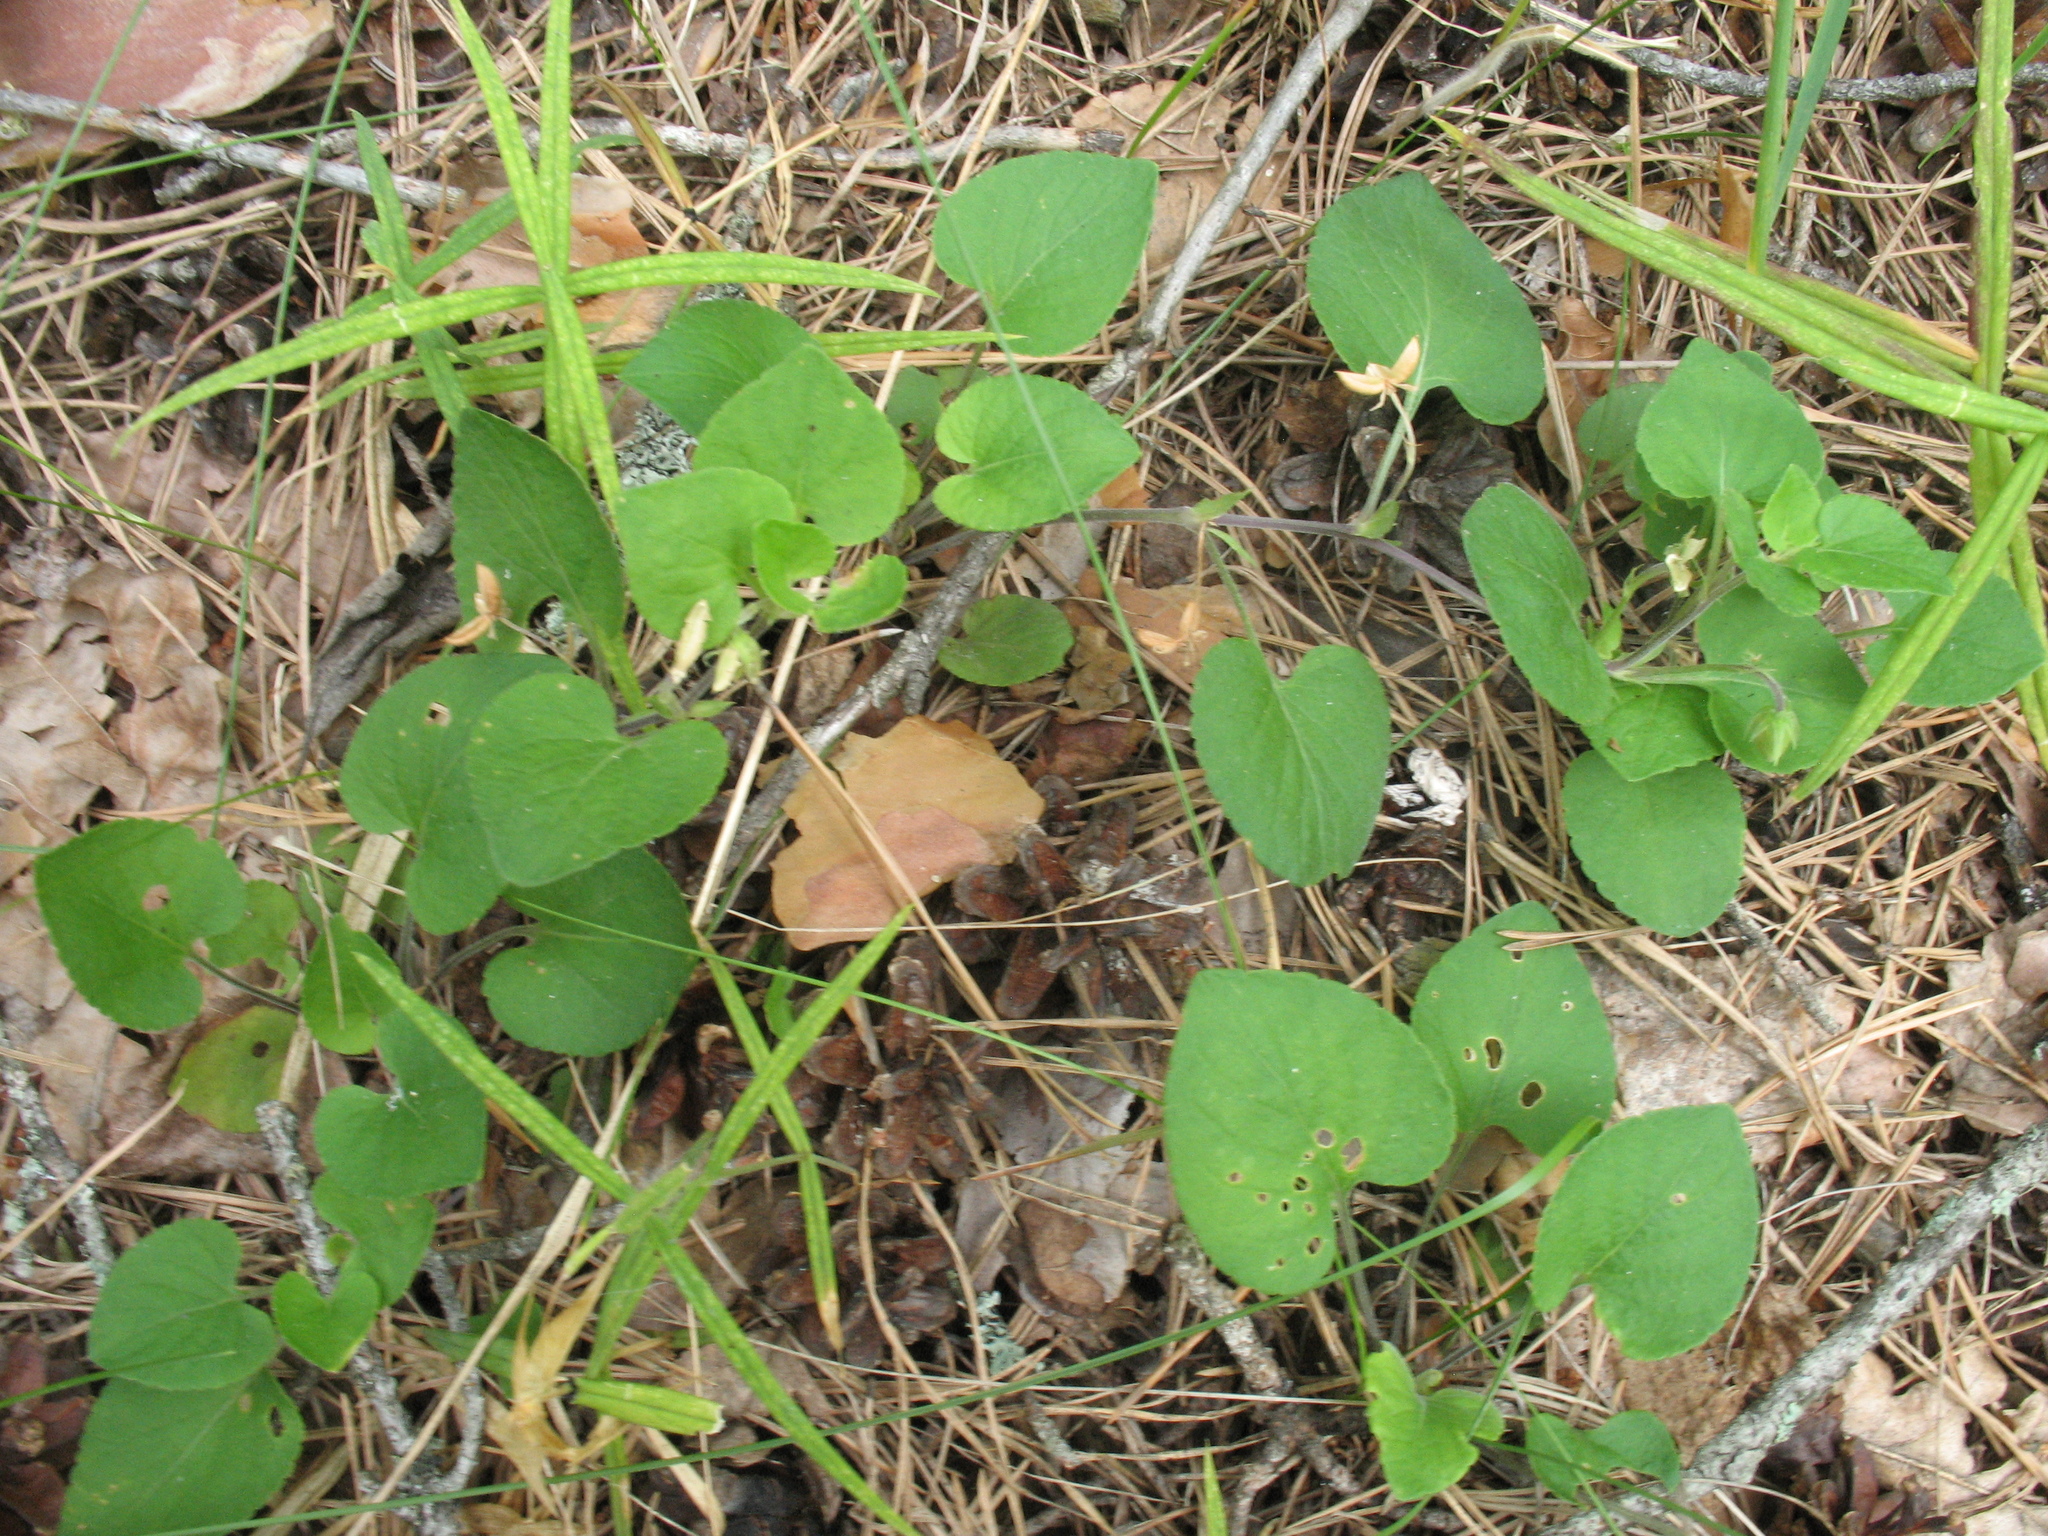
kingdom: Plantae
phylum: Tracheophyta
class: Magnoliopsida
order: Malpighiales
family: Violaceae
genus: Viola
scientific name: Viola rupestris
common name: Teesdale violet
